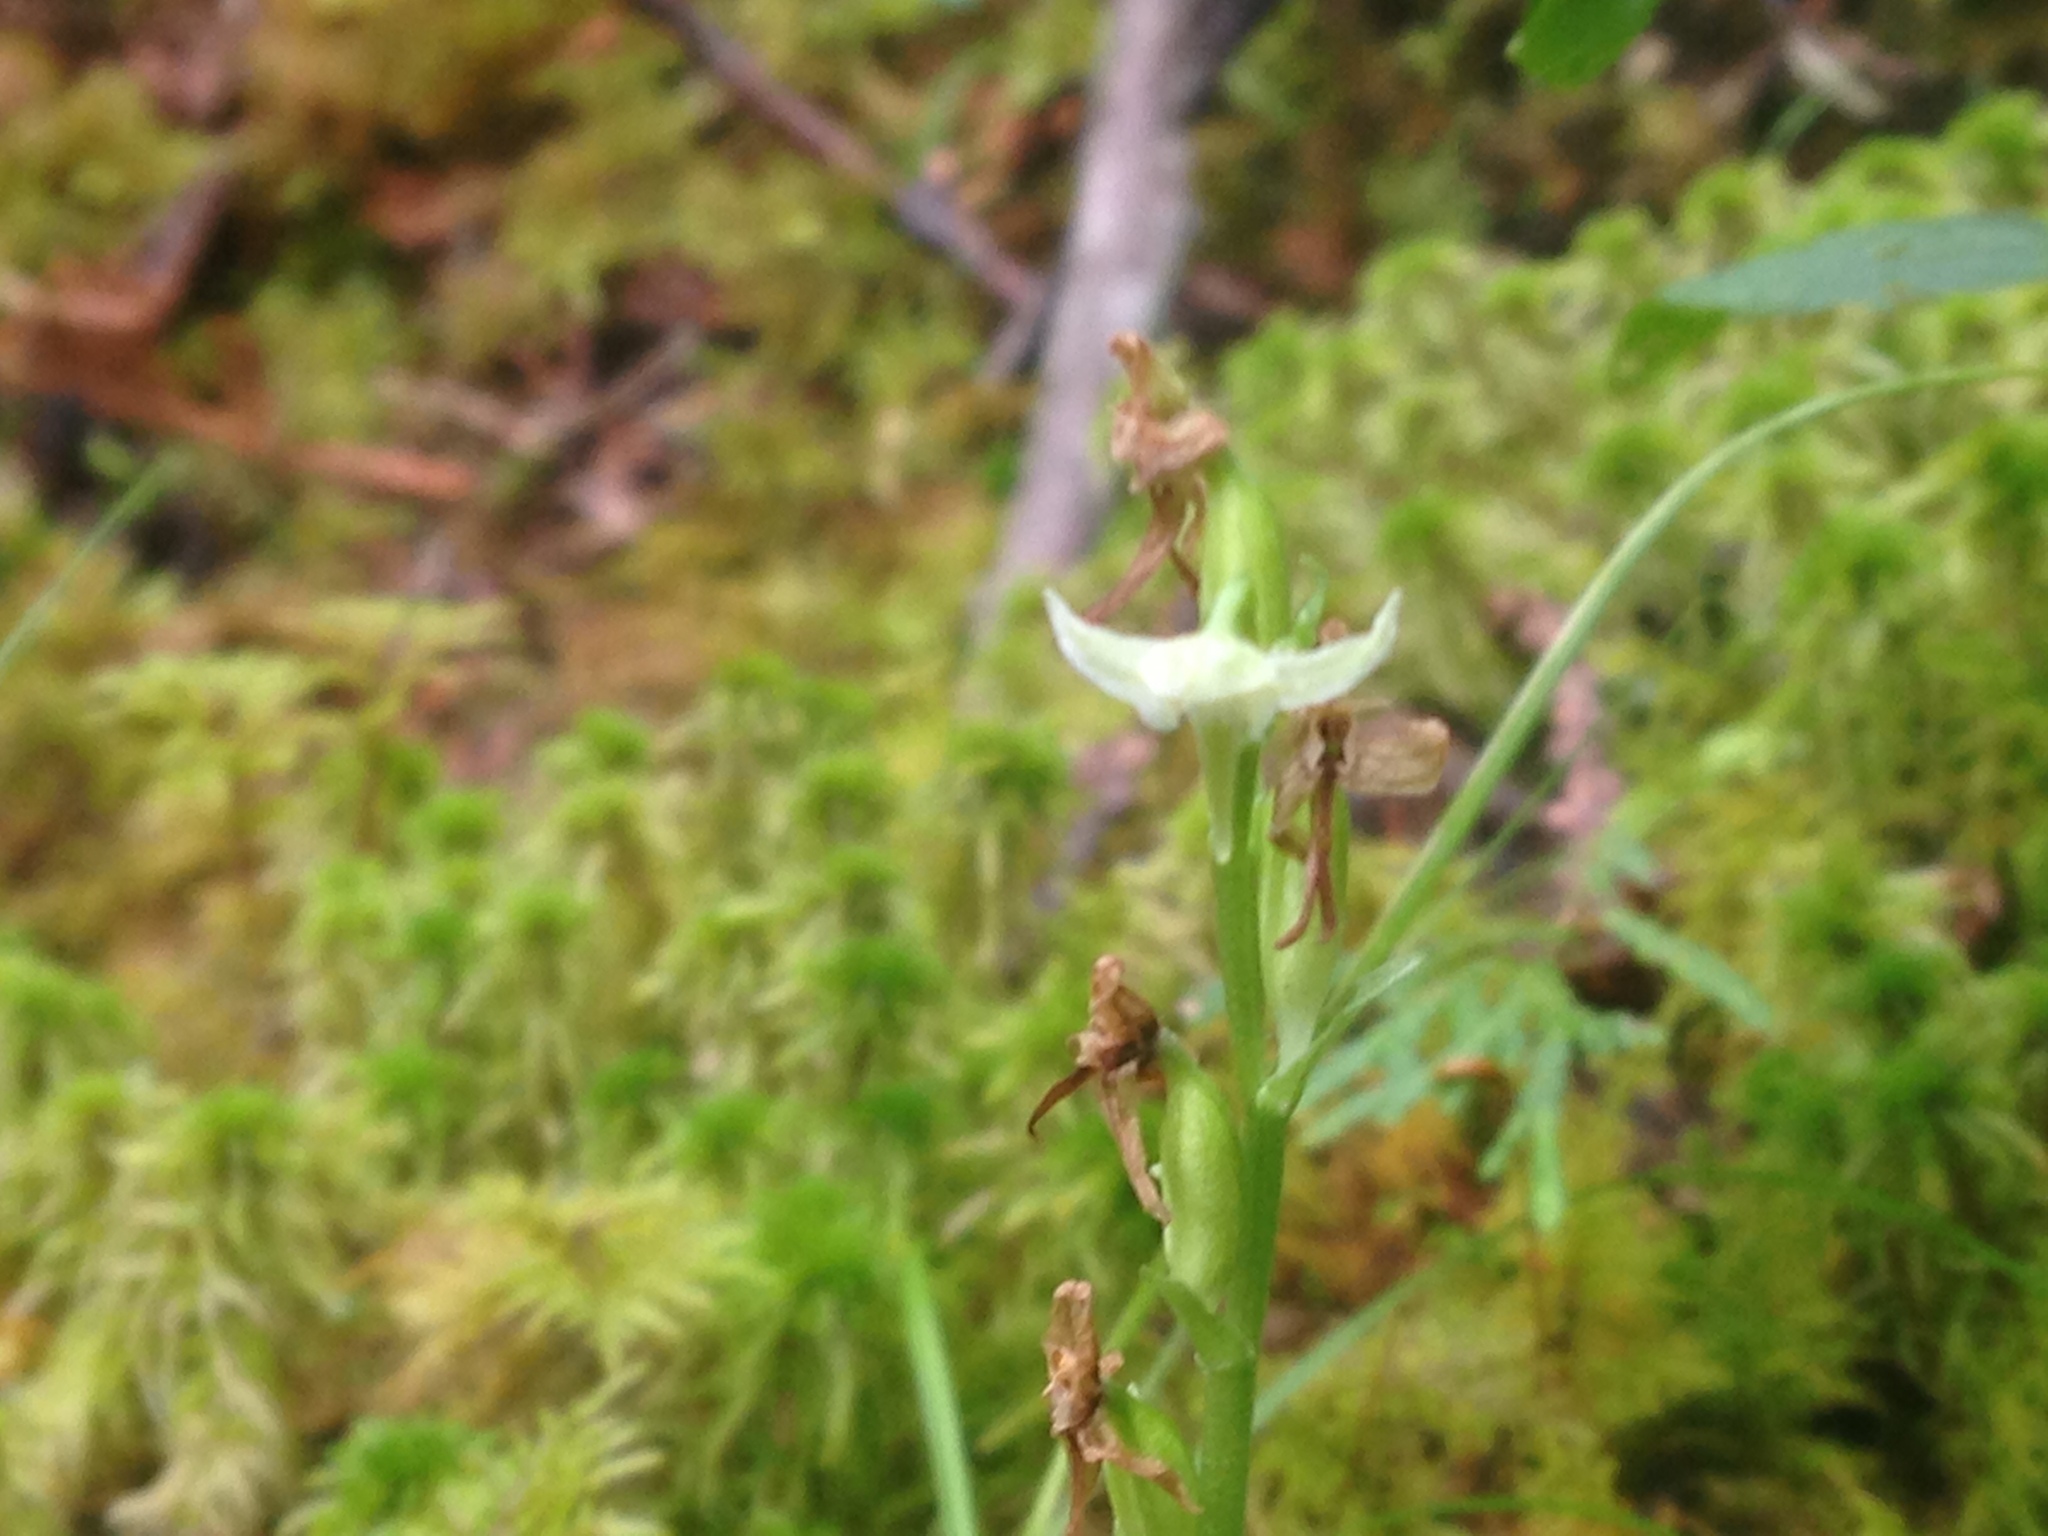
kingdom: Plantae
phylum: Tracheophyta
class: Liliopsida
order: Asparagales
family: Orchidaceae
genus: Platanthera
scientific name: Platanthera obtusata
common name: Blunt bog orchid
